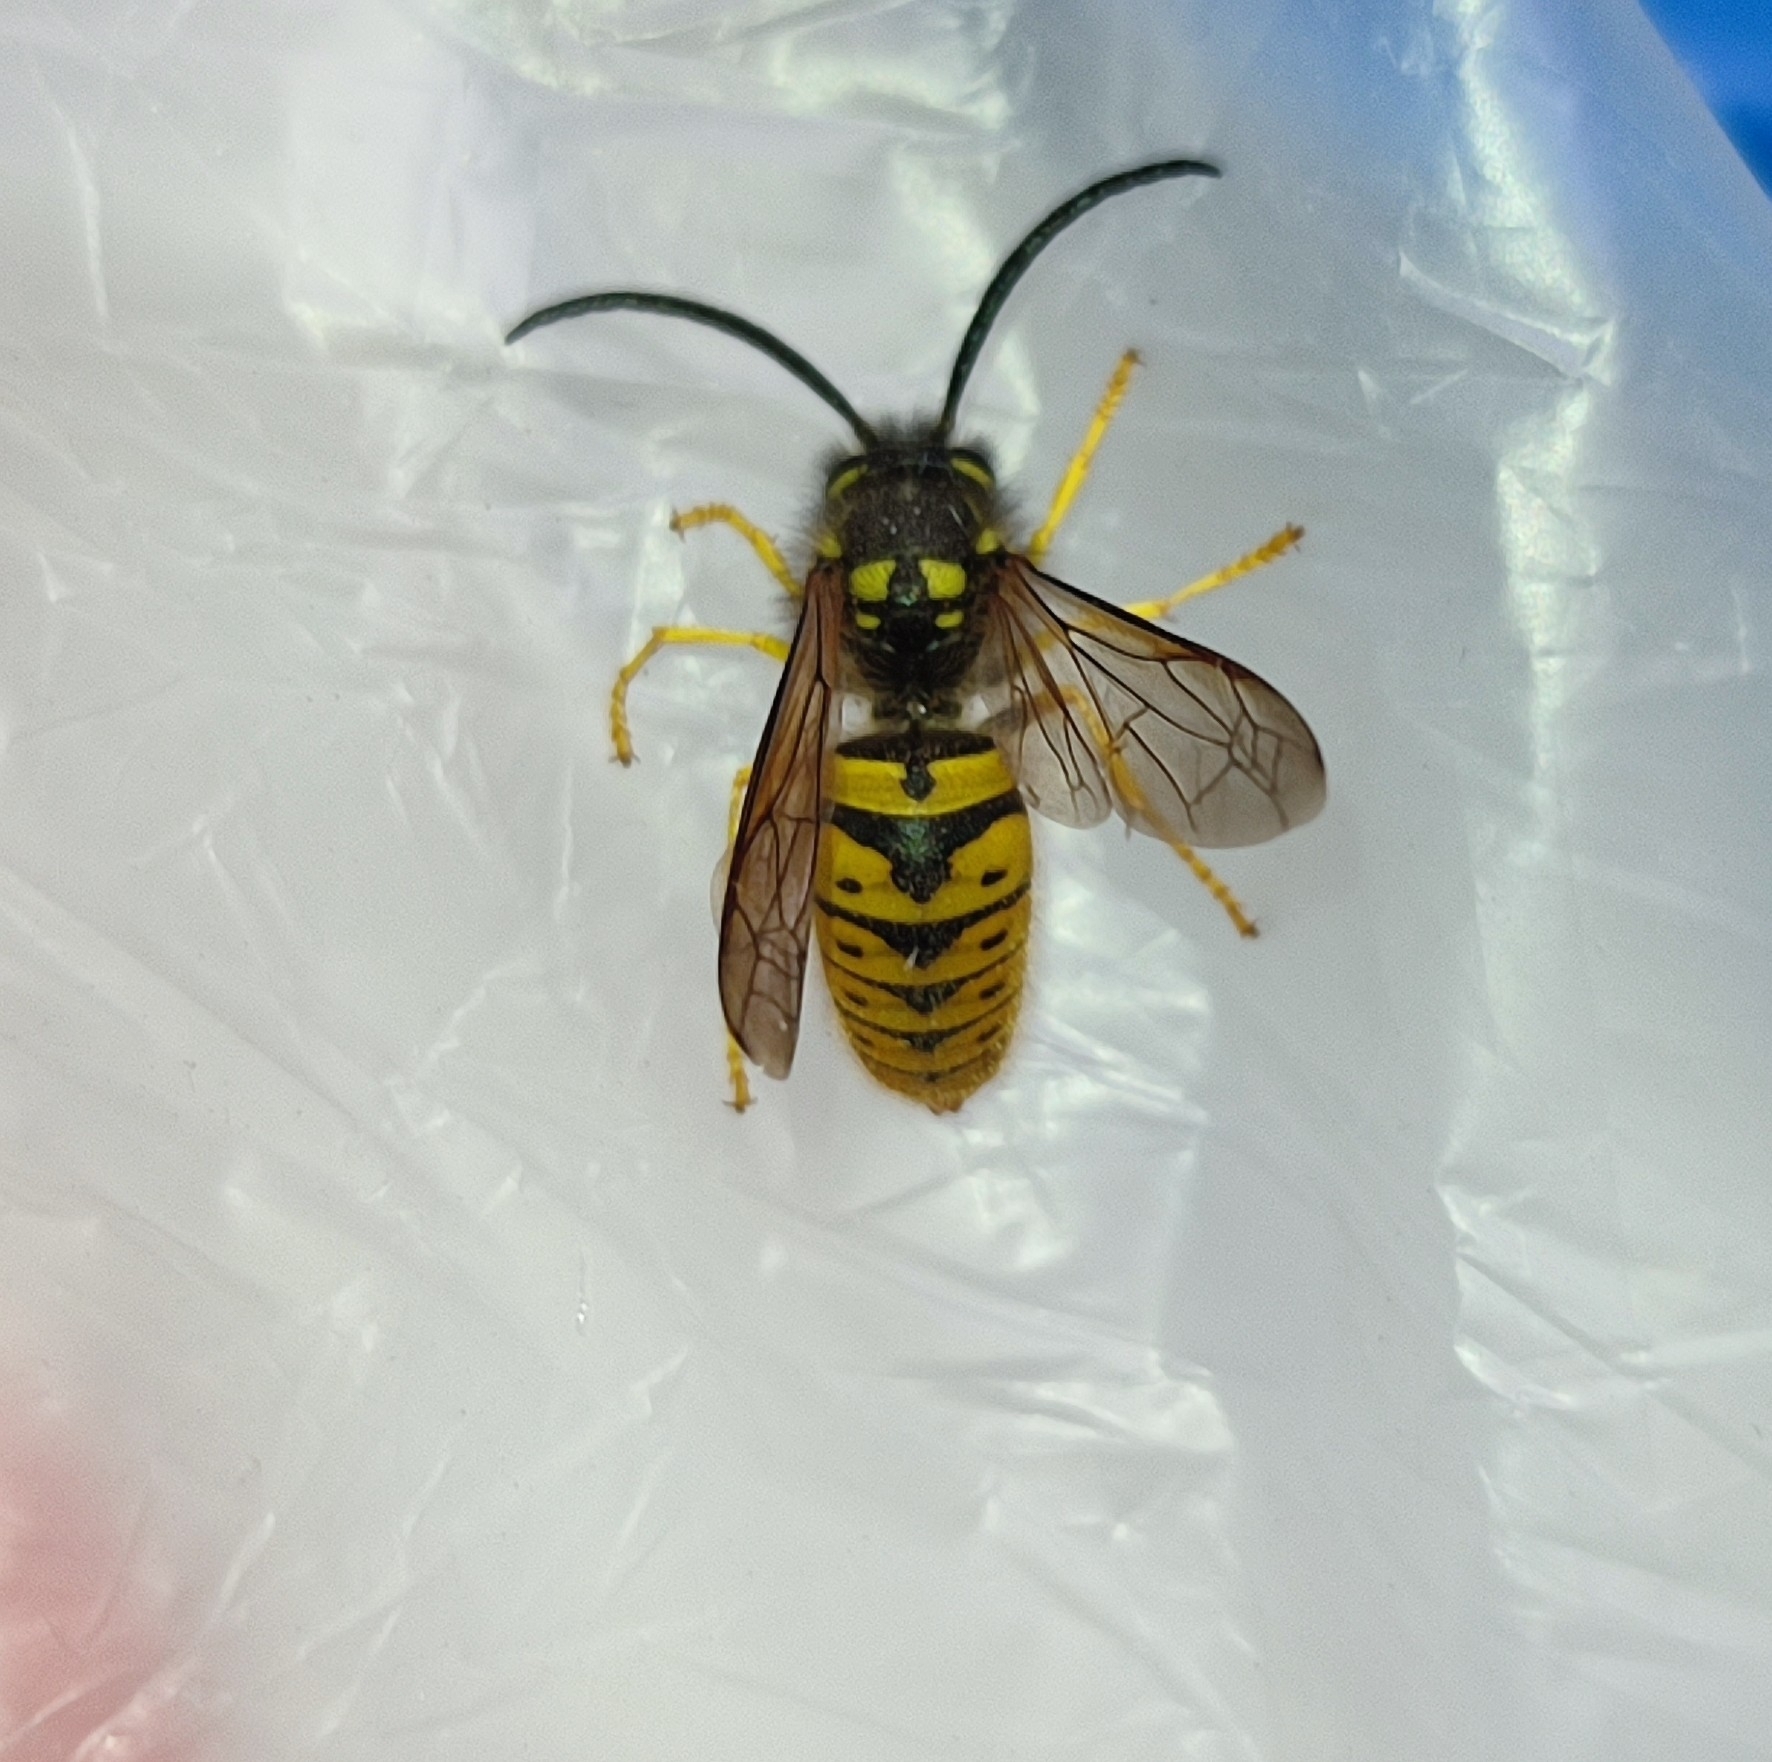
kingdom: Animalia
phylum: Arthropoda
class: Insecta
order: Hymenoptera
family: Vespidae
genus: Vespula
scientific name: Vespula germanica
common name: German wasp
